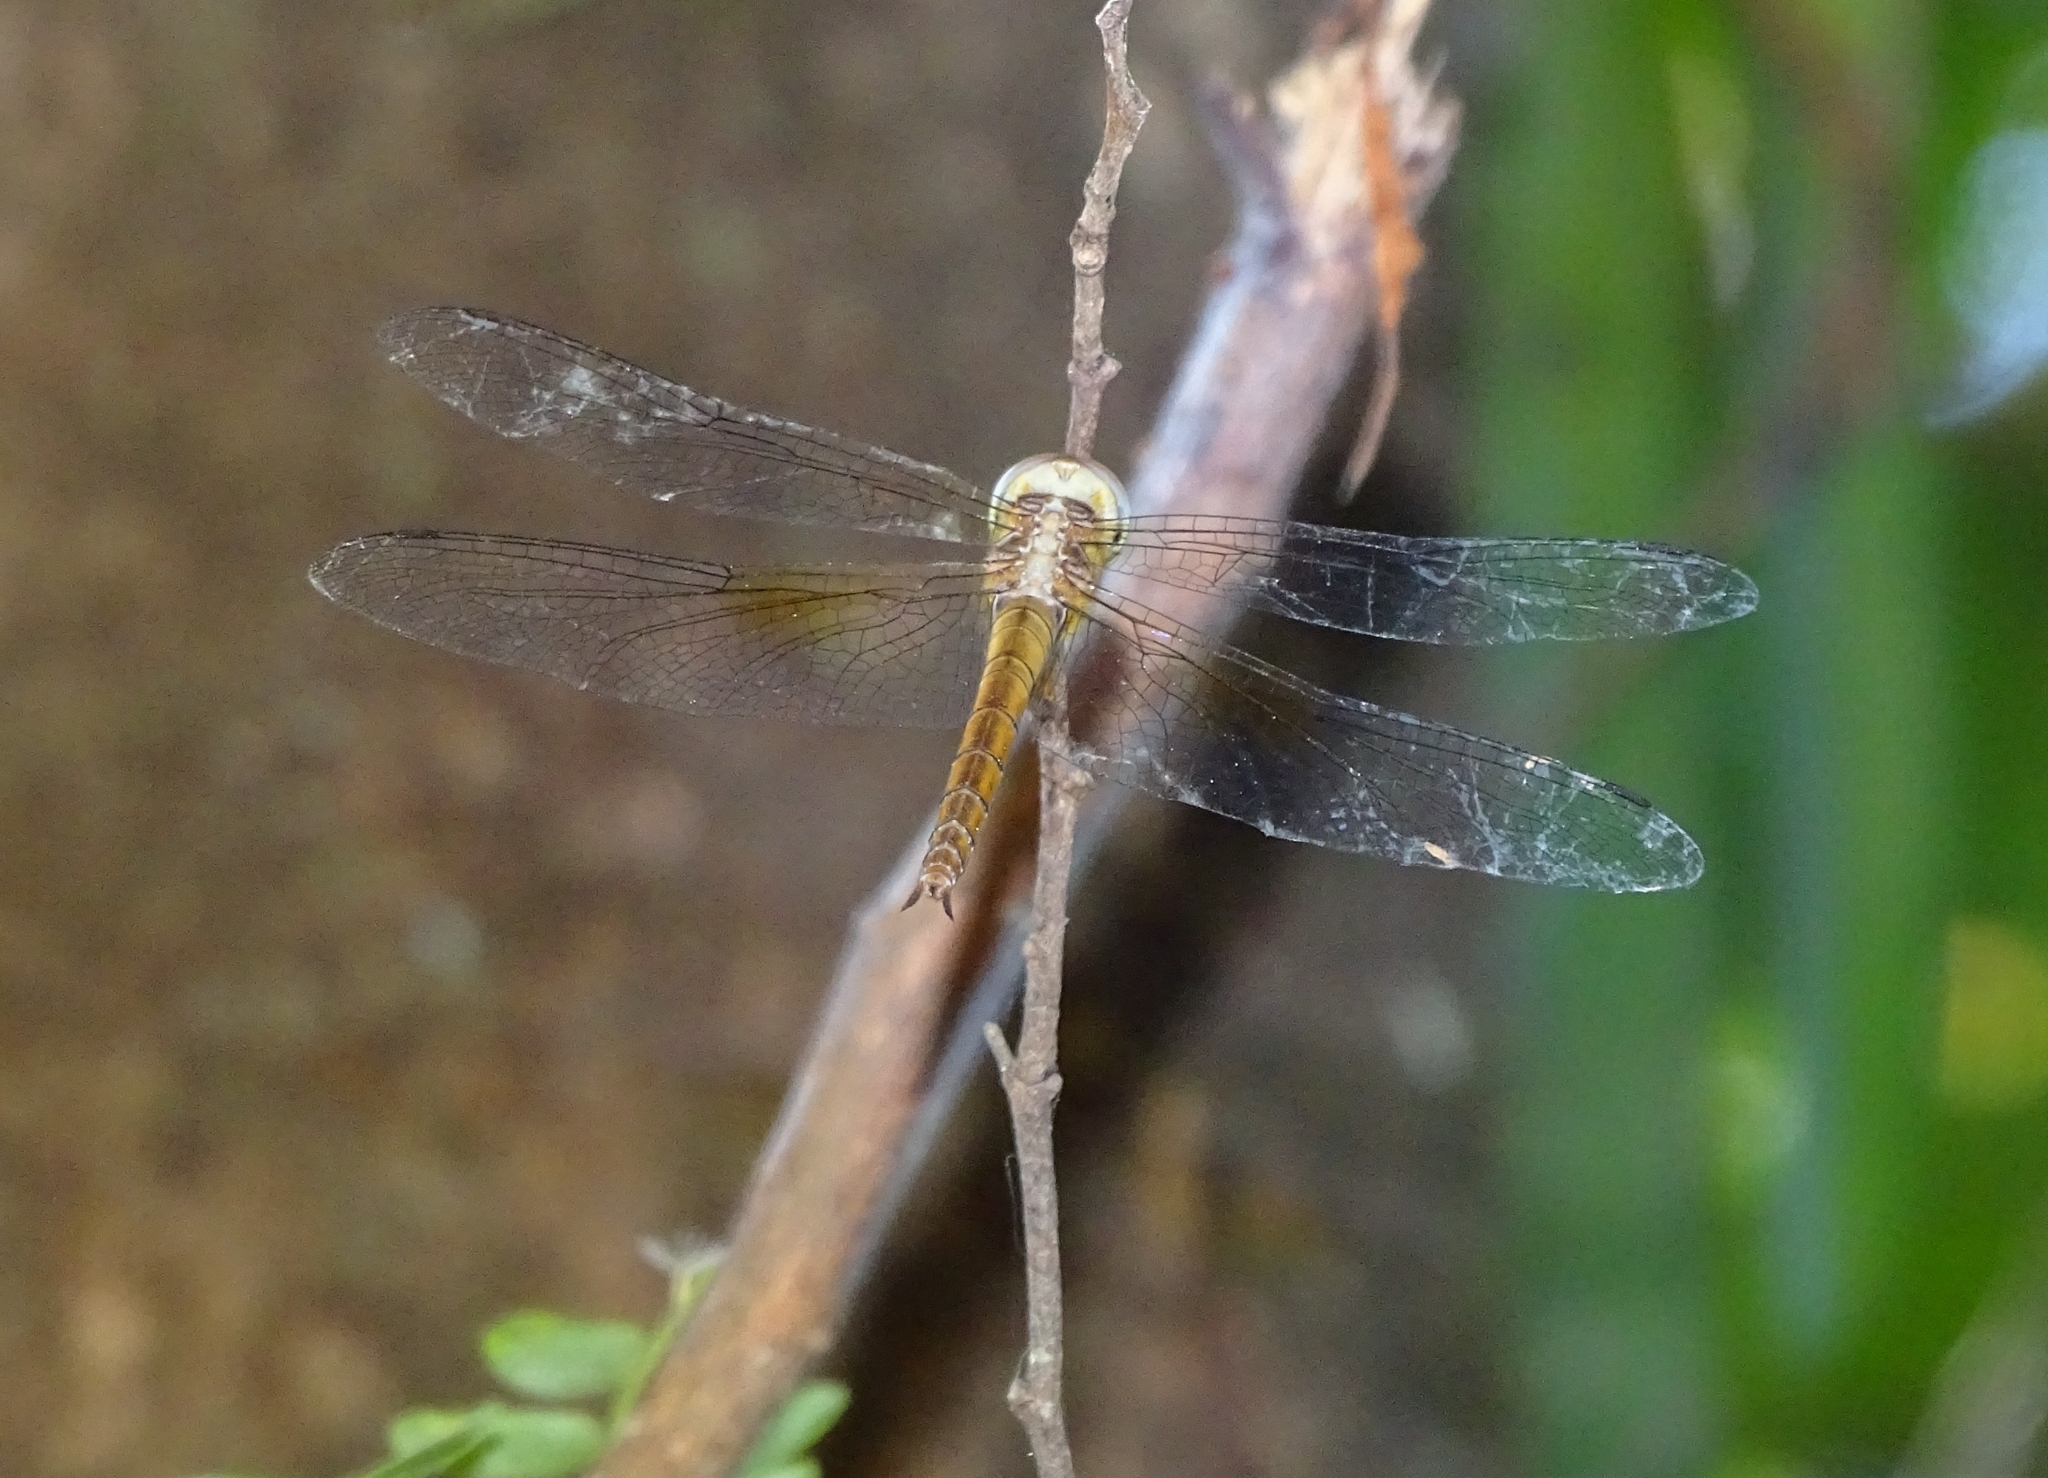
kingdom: Animalia
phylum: Arthropoda
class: Insecta
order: Odonata
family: Libellulidae
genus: Tholymis
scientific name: Tholymis tillarga
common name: Coral-tailed cloud wing
